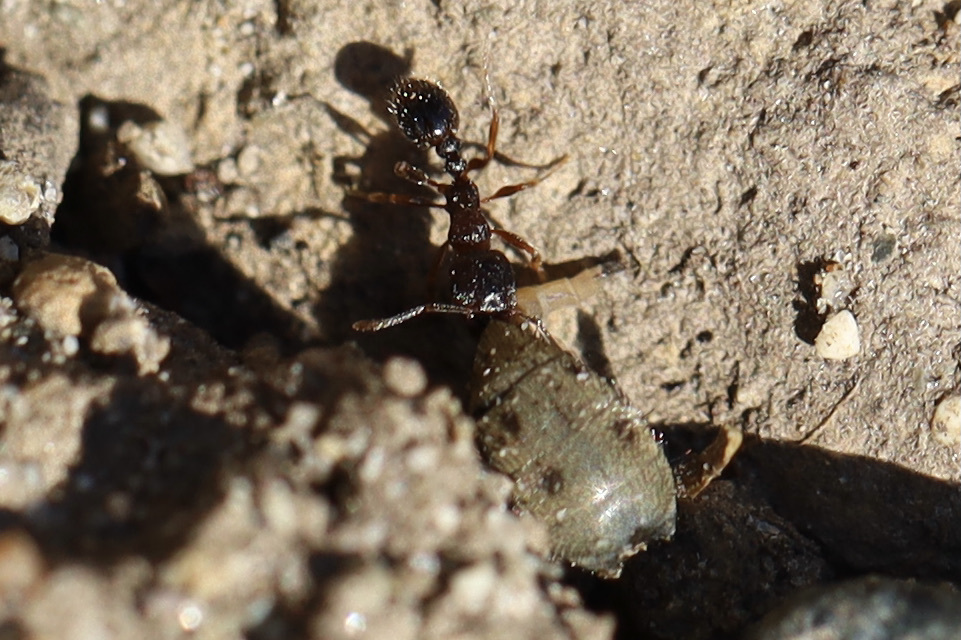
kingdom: Animalia
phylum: Arthropoda
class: Insecta
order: Hymenoptera
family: Formicidae
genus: Tetramorium
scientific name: Tetramorium immigrans
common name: Pavement ant
